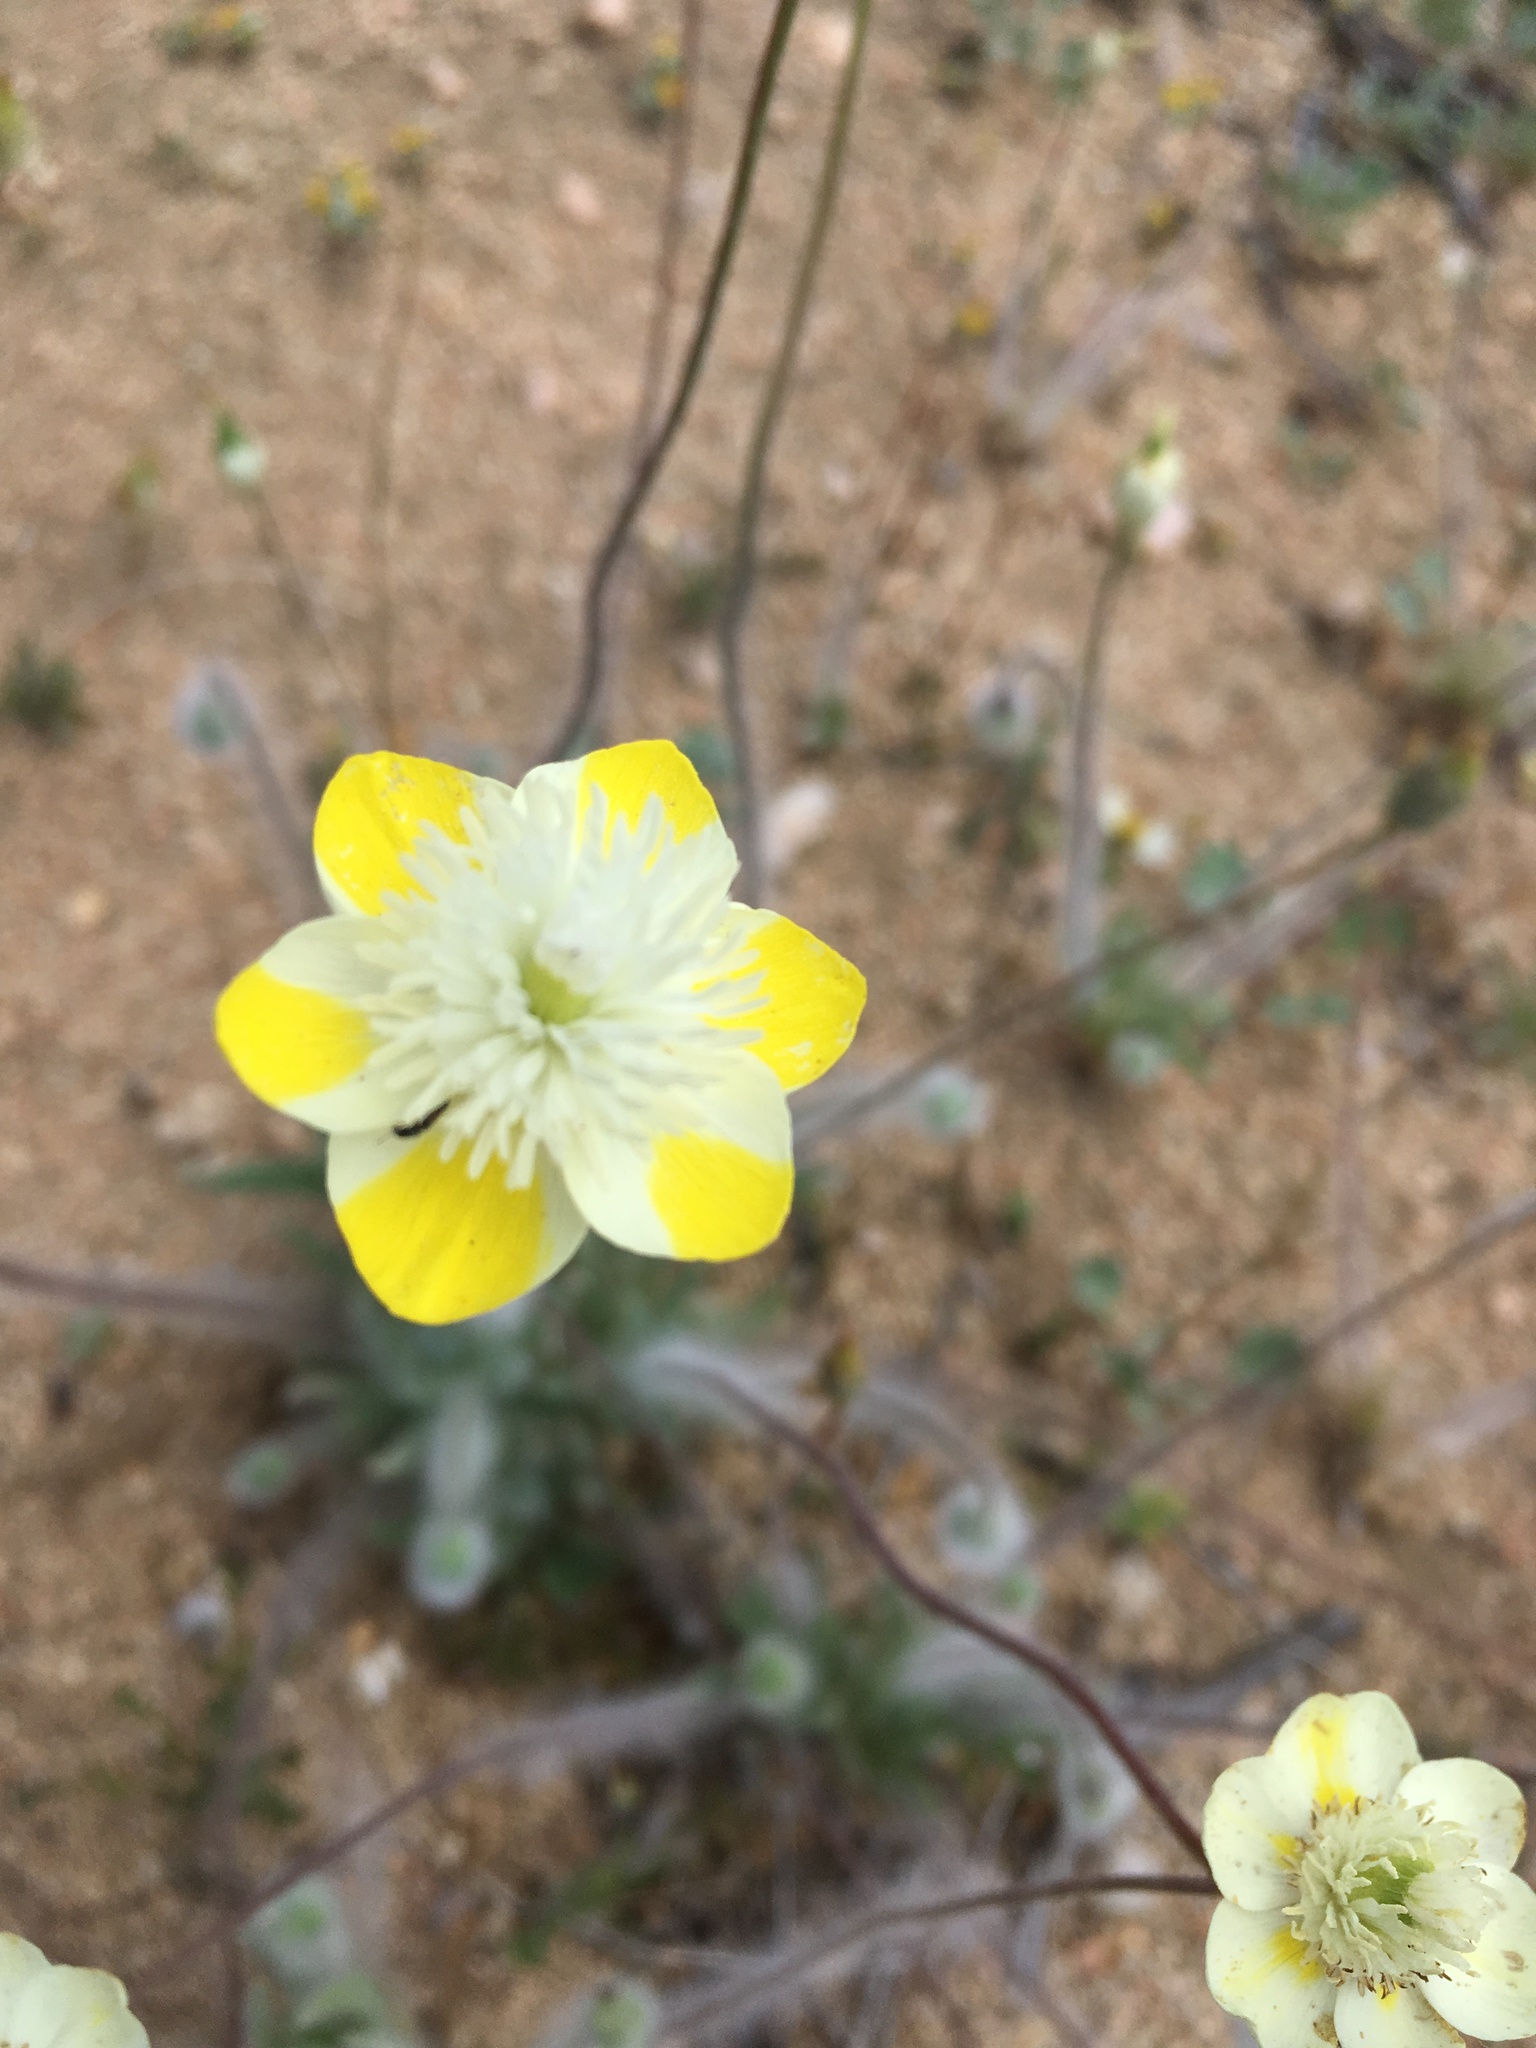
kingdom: Plantae
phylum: Tracheophyta
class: Magnoliopsida
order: Ranunculales
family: Papaveraceae
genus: Platystemon
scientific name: Platystemon californicus
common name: Cream-cups
